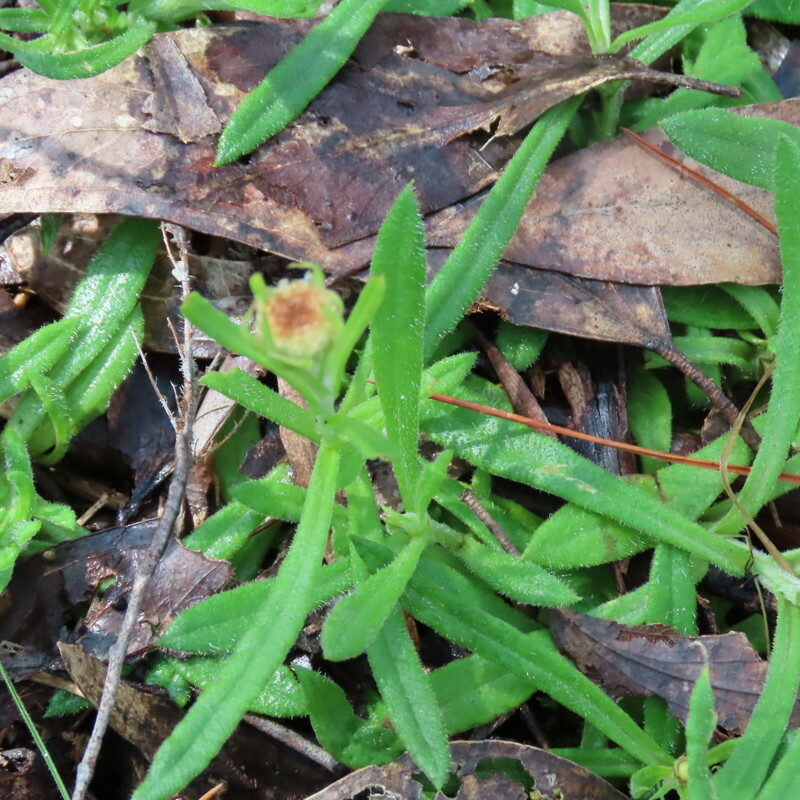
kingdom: Plantae
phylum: Tracheophyta
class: Magnoliopsida
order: Asterales
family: Asteraceae
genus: Coronidium
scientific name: Coronidium scorpioides
